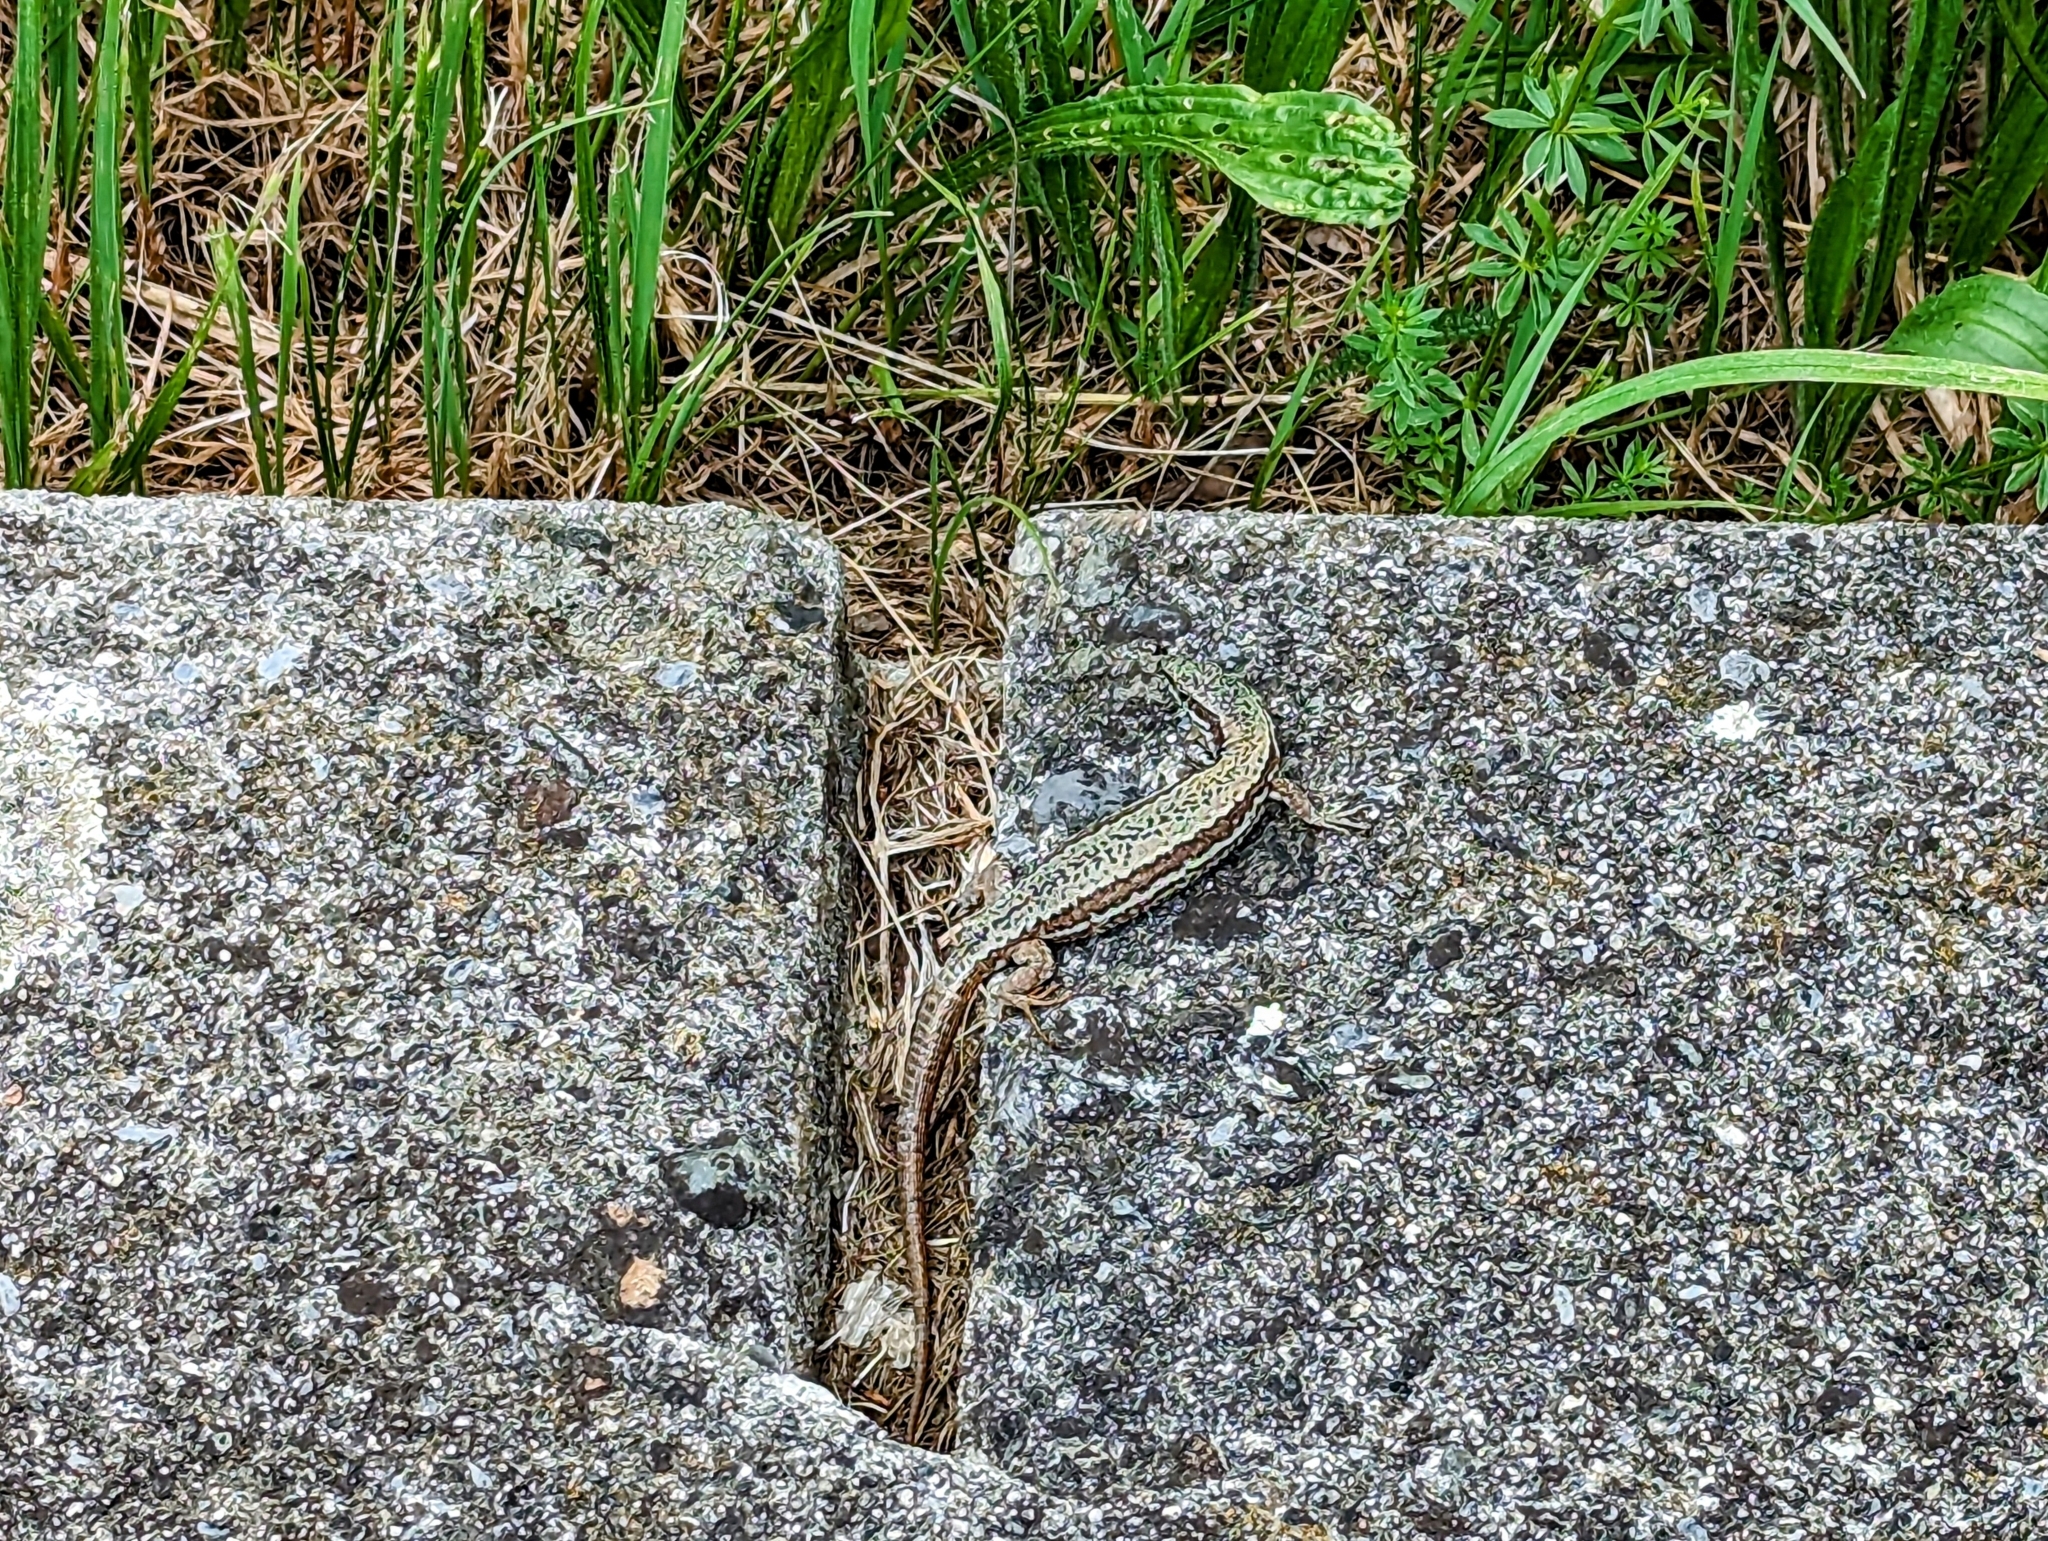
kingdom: Animalia
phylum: Chordata
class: Squamata
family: Lacertidae
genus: Podarcis
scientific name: Podarcis muralis
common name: Common wall lizard
